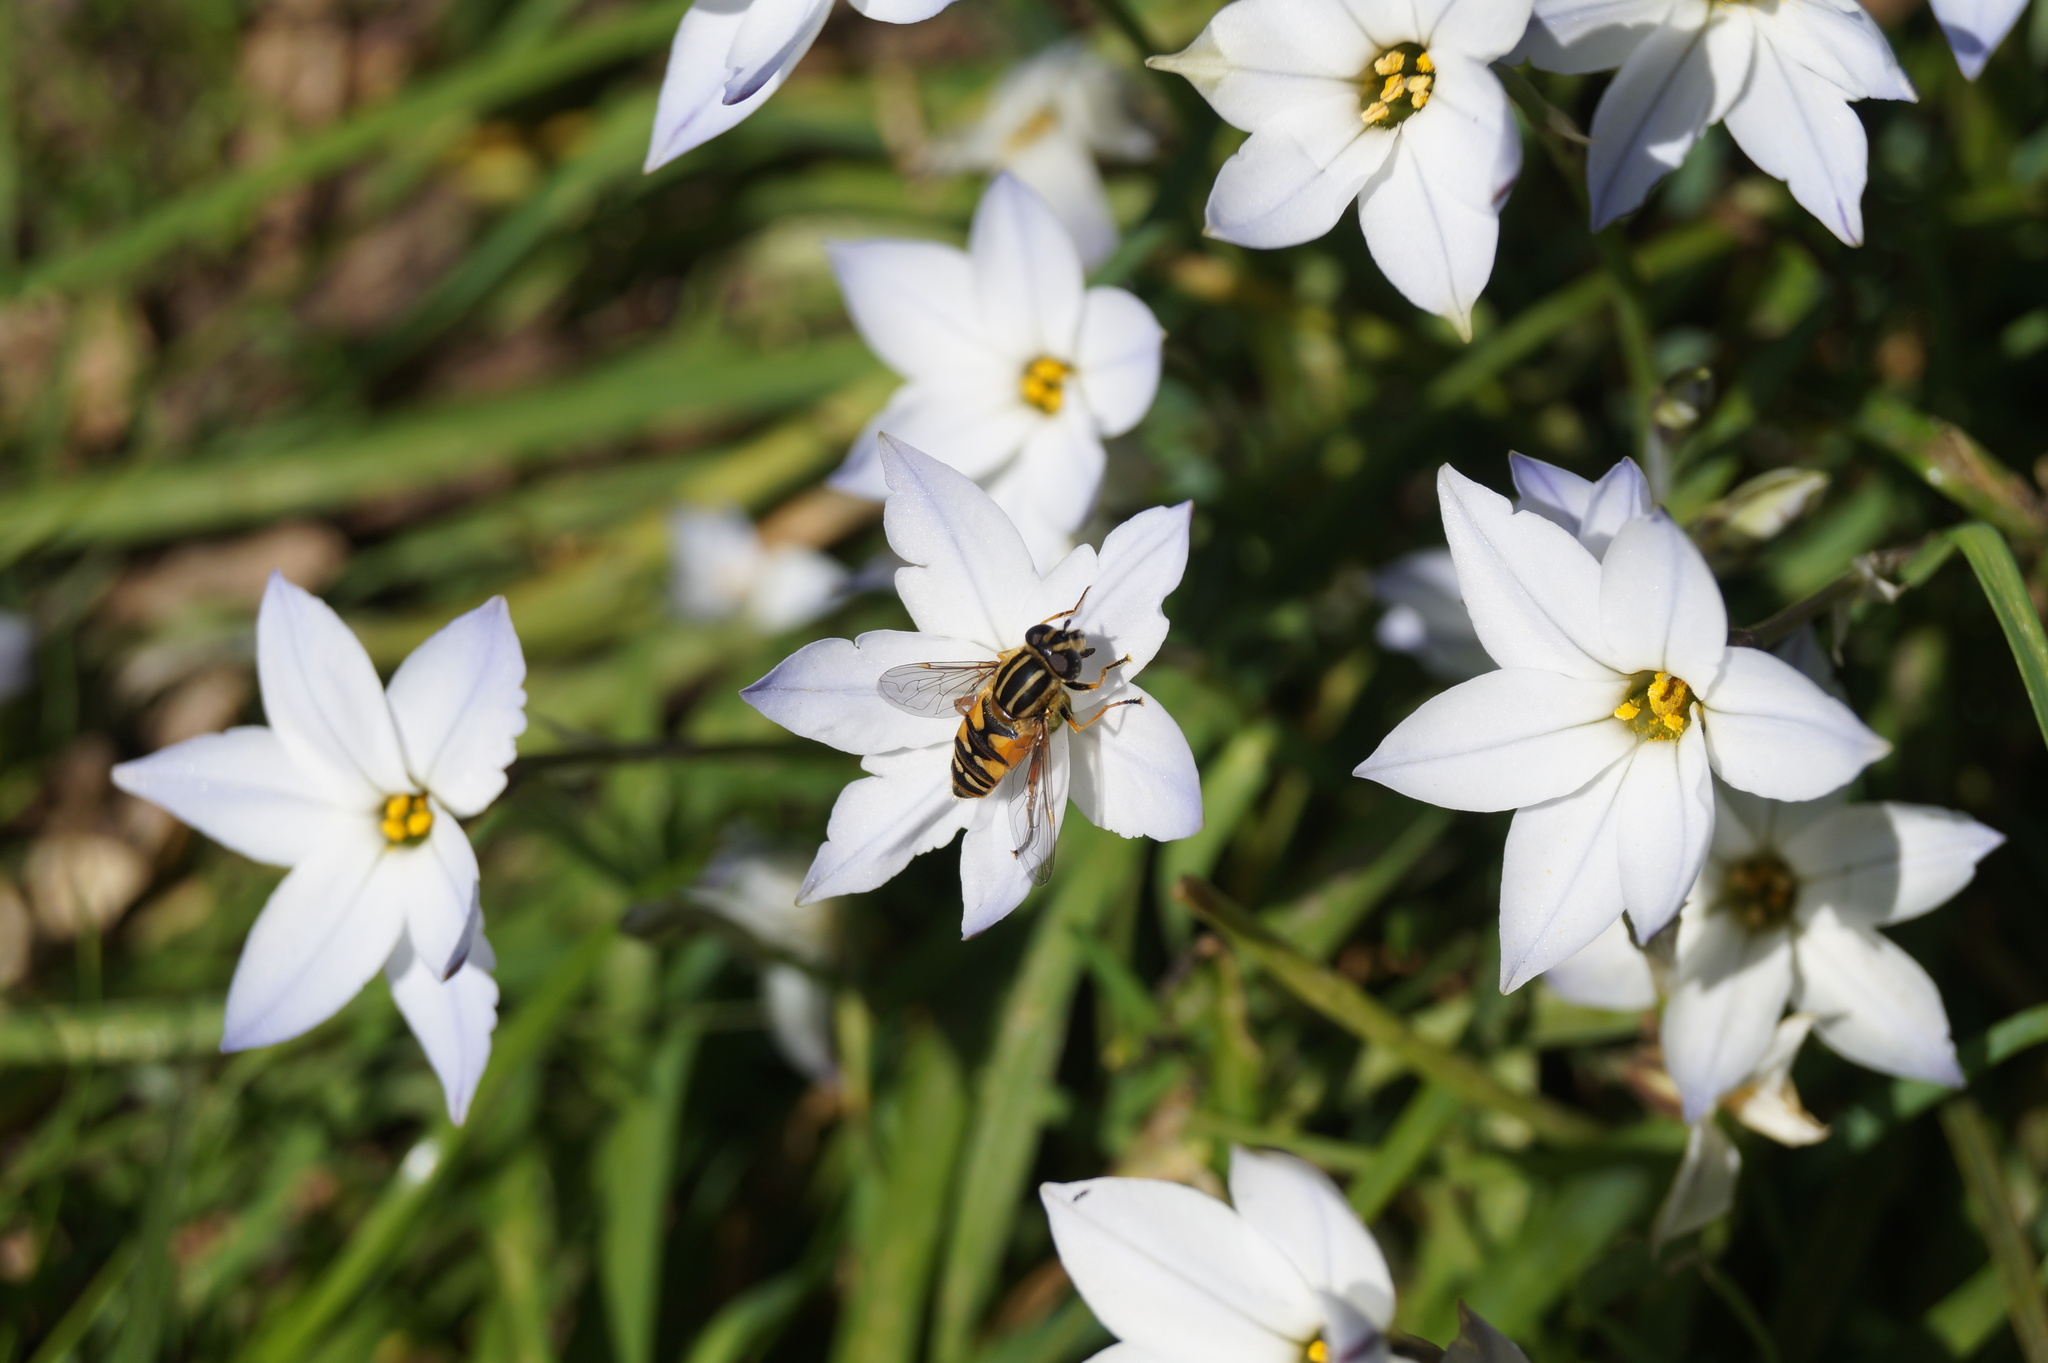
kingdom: Animalia
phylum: Arthropoda
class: Insecta
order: Diptera
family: Syrphidae
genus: Helophilus
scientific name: Helophilus pendulus
